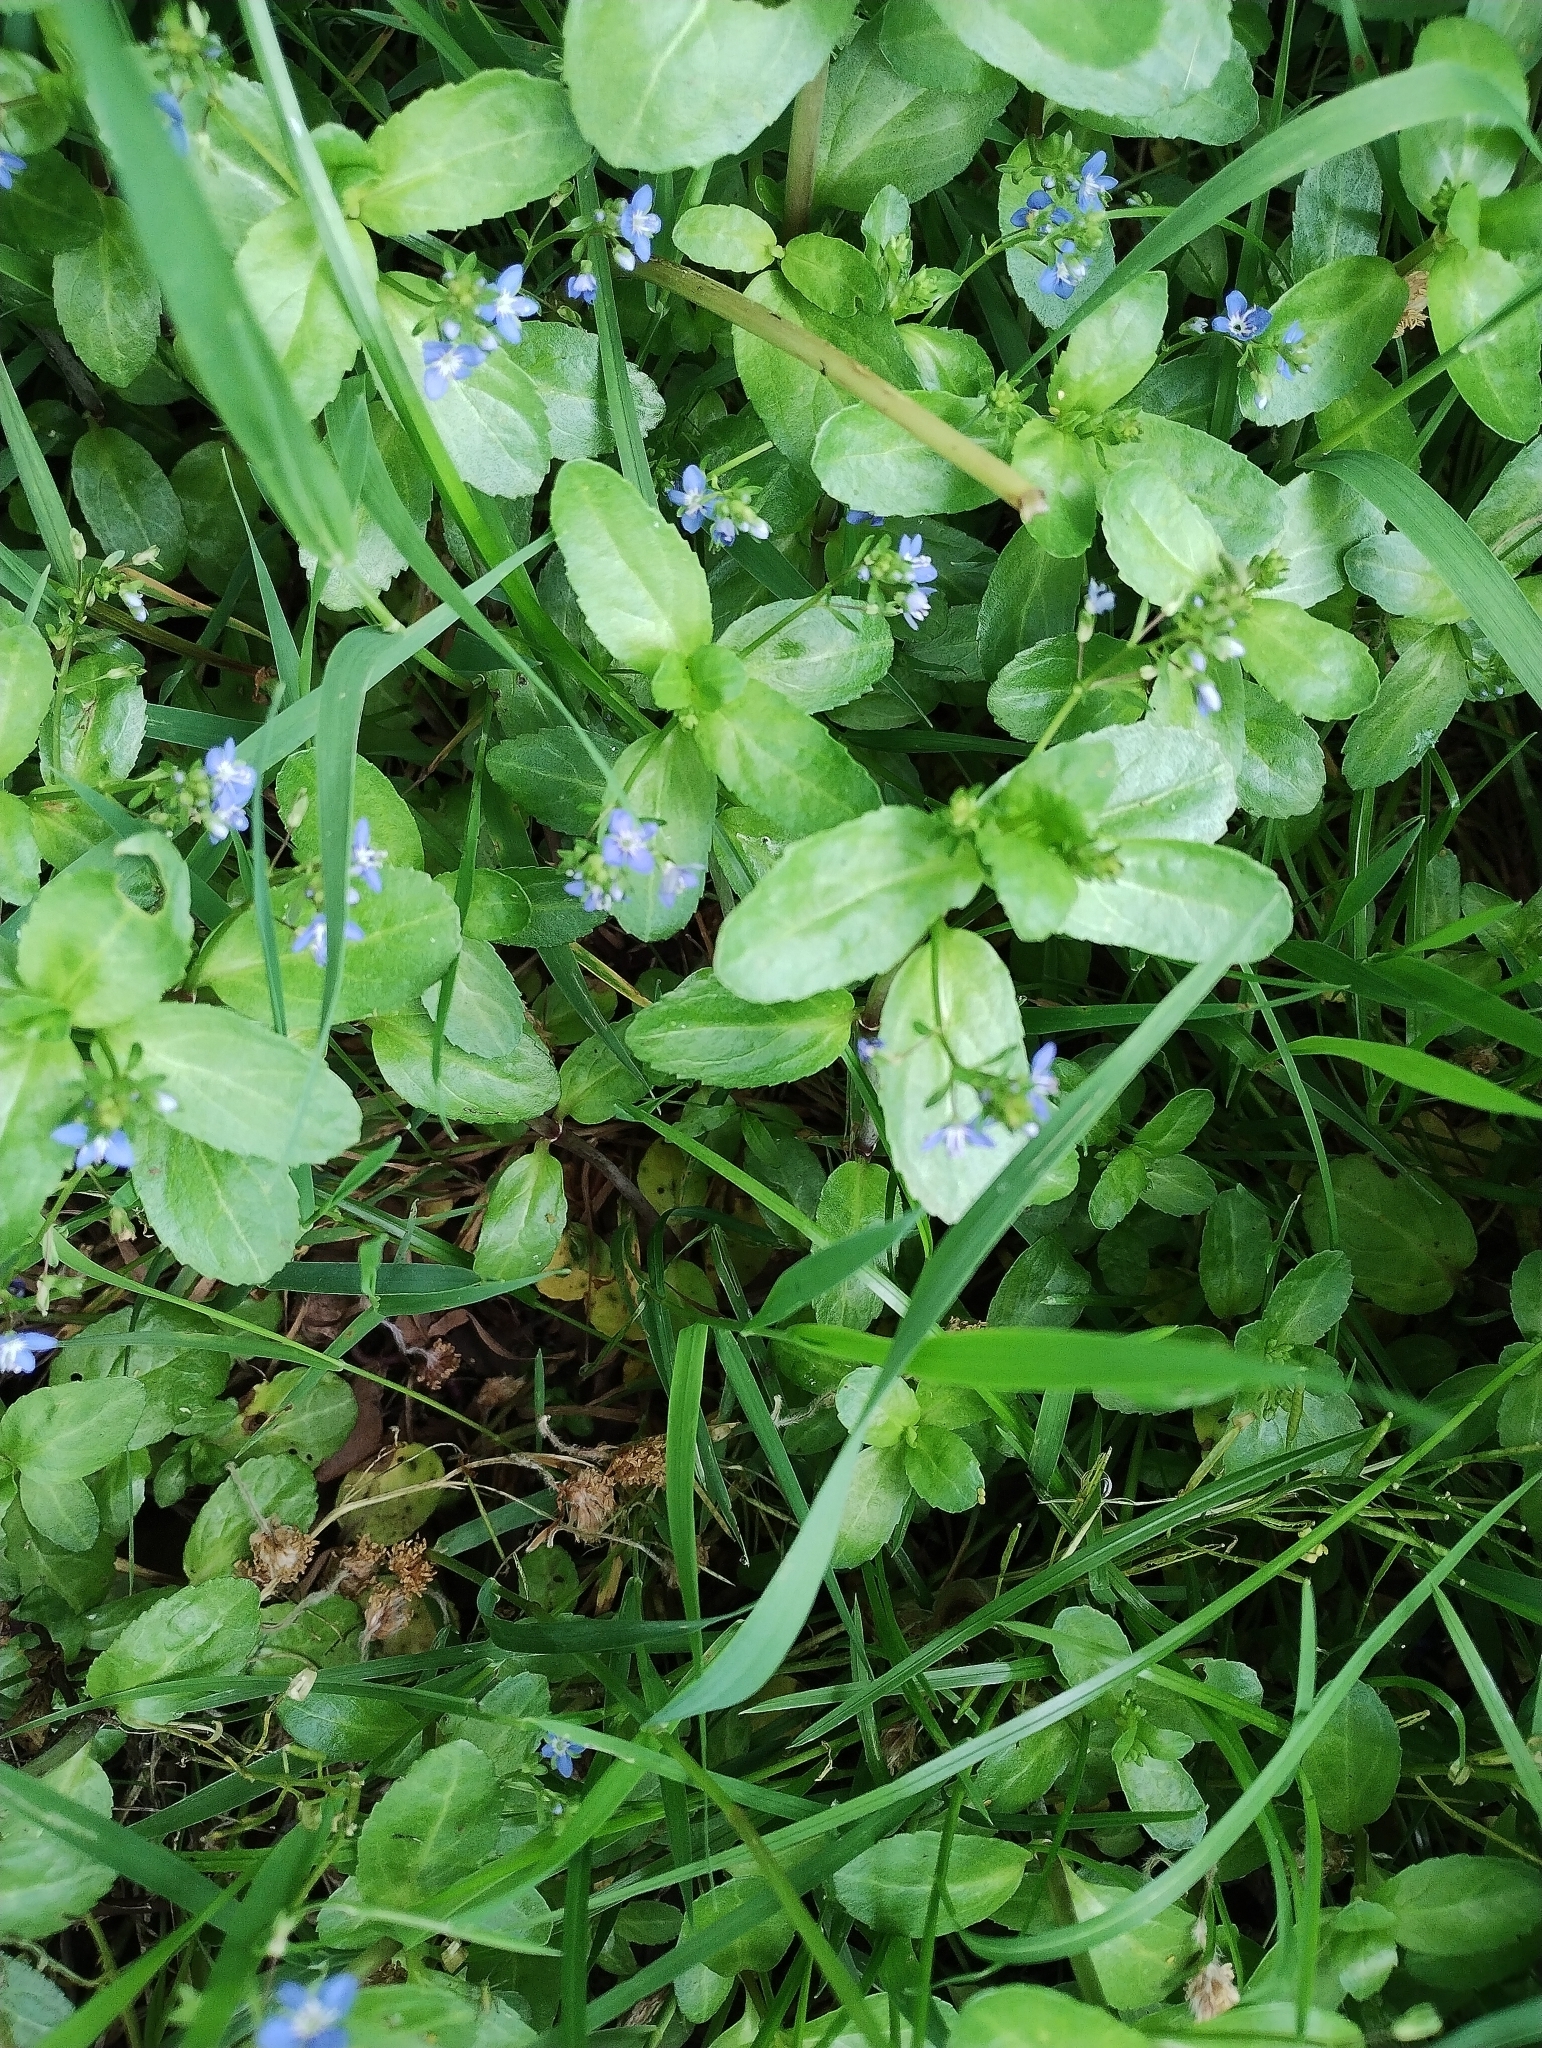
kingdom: Plantae
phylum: Tracheophyta
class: Magnoliopsida
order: Lamiales
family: Plantaginaceae
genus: Veronica
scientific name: Veronica beccabunga
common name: Brooklime
